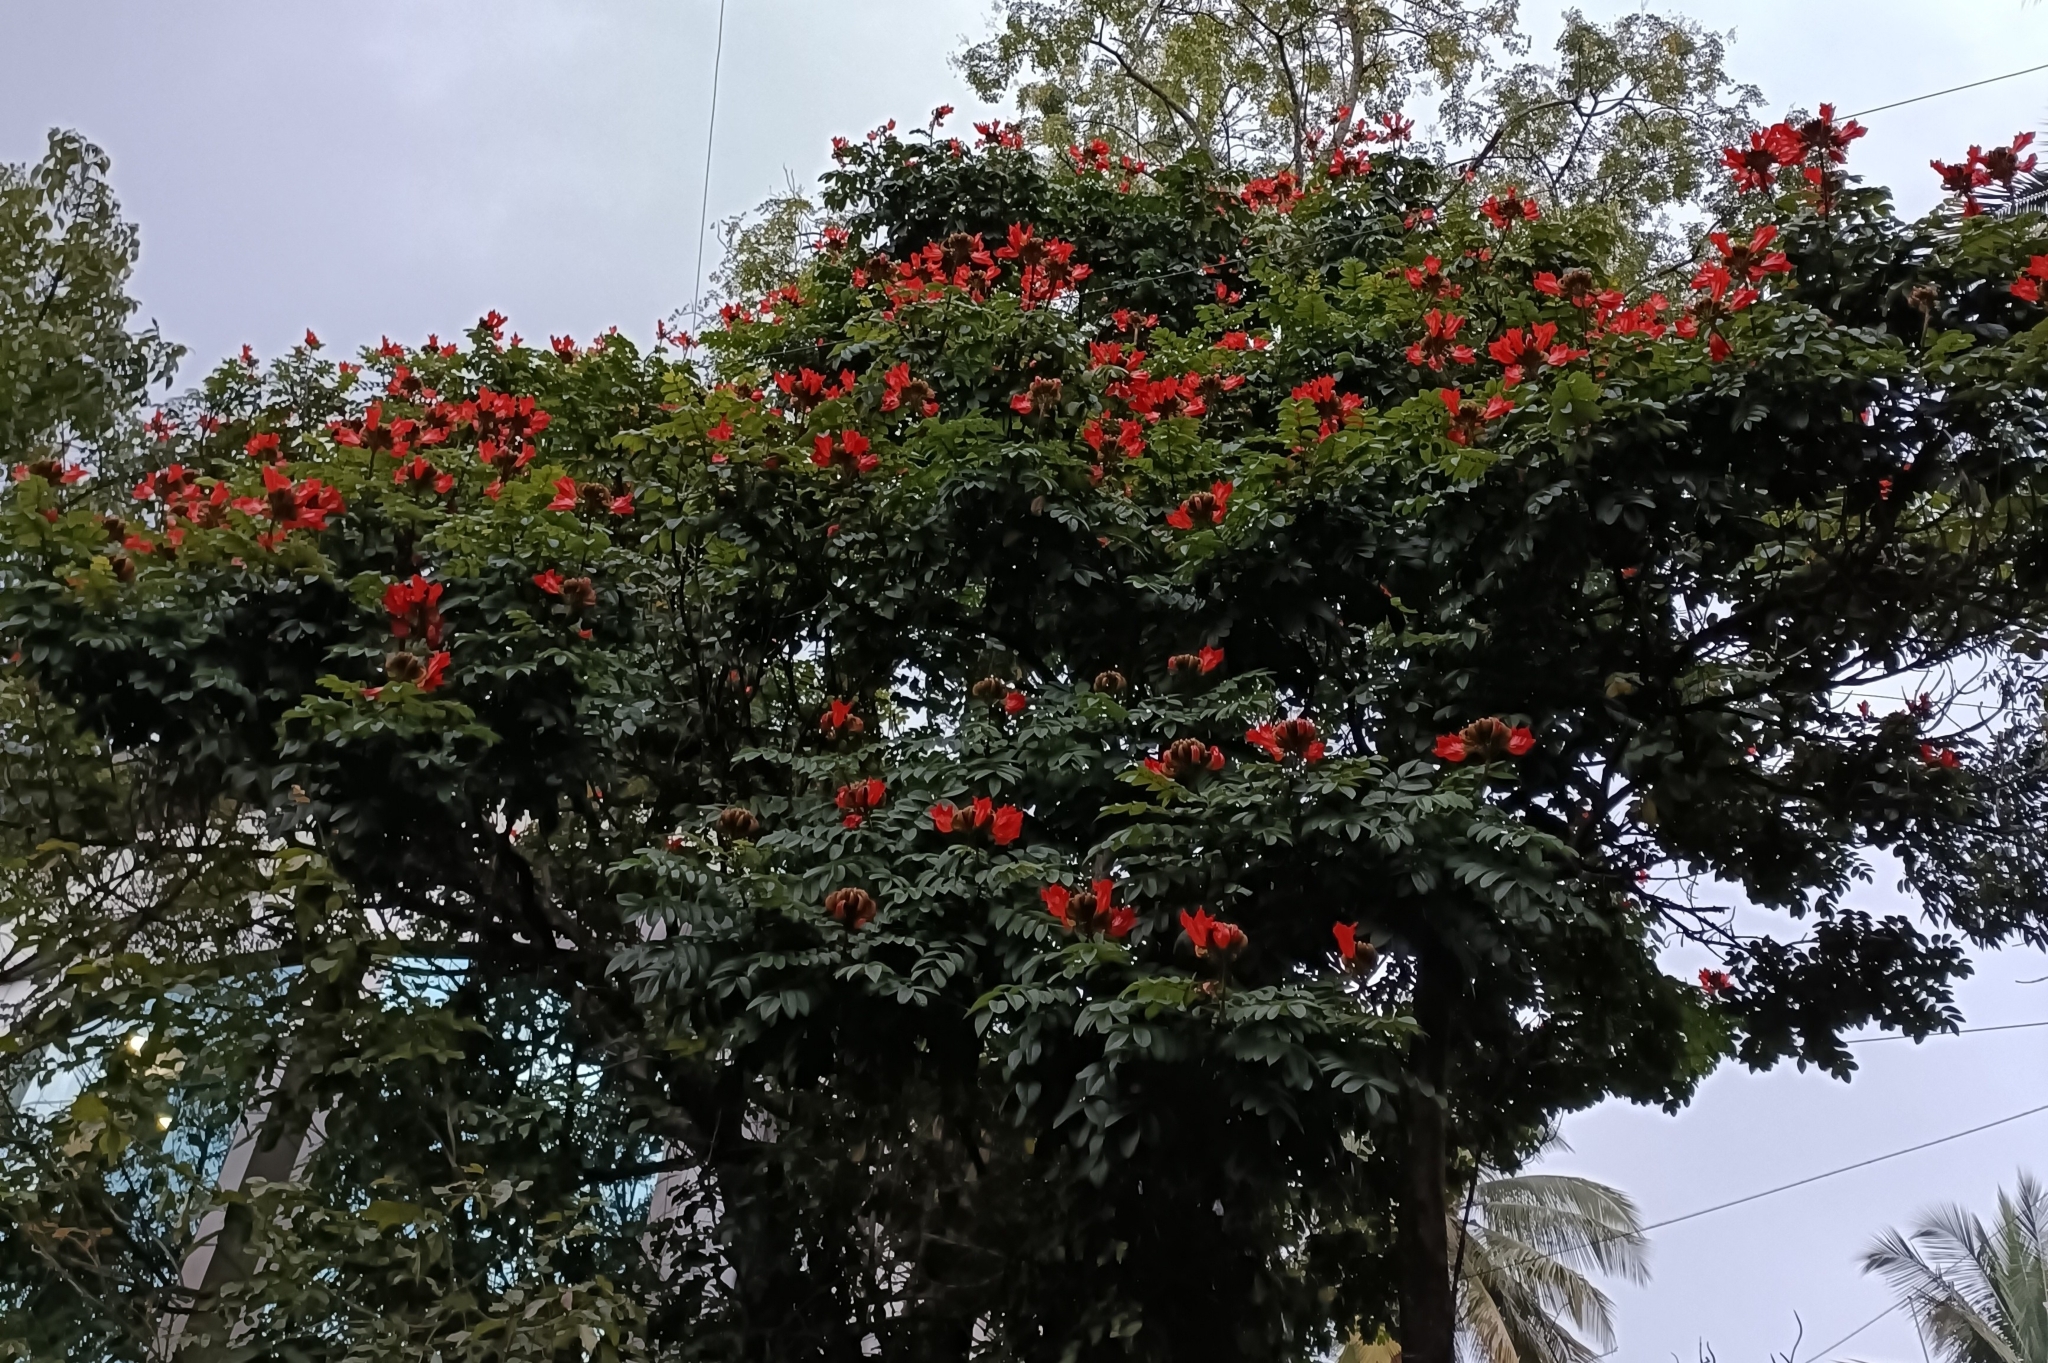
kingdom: Plantae
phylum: Tracheophyta
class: Magnoliopsida
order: Lamiales
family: Bignoniaceae
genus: Spathodea
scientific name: Spathodea campanulata
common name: African tuliptree
